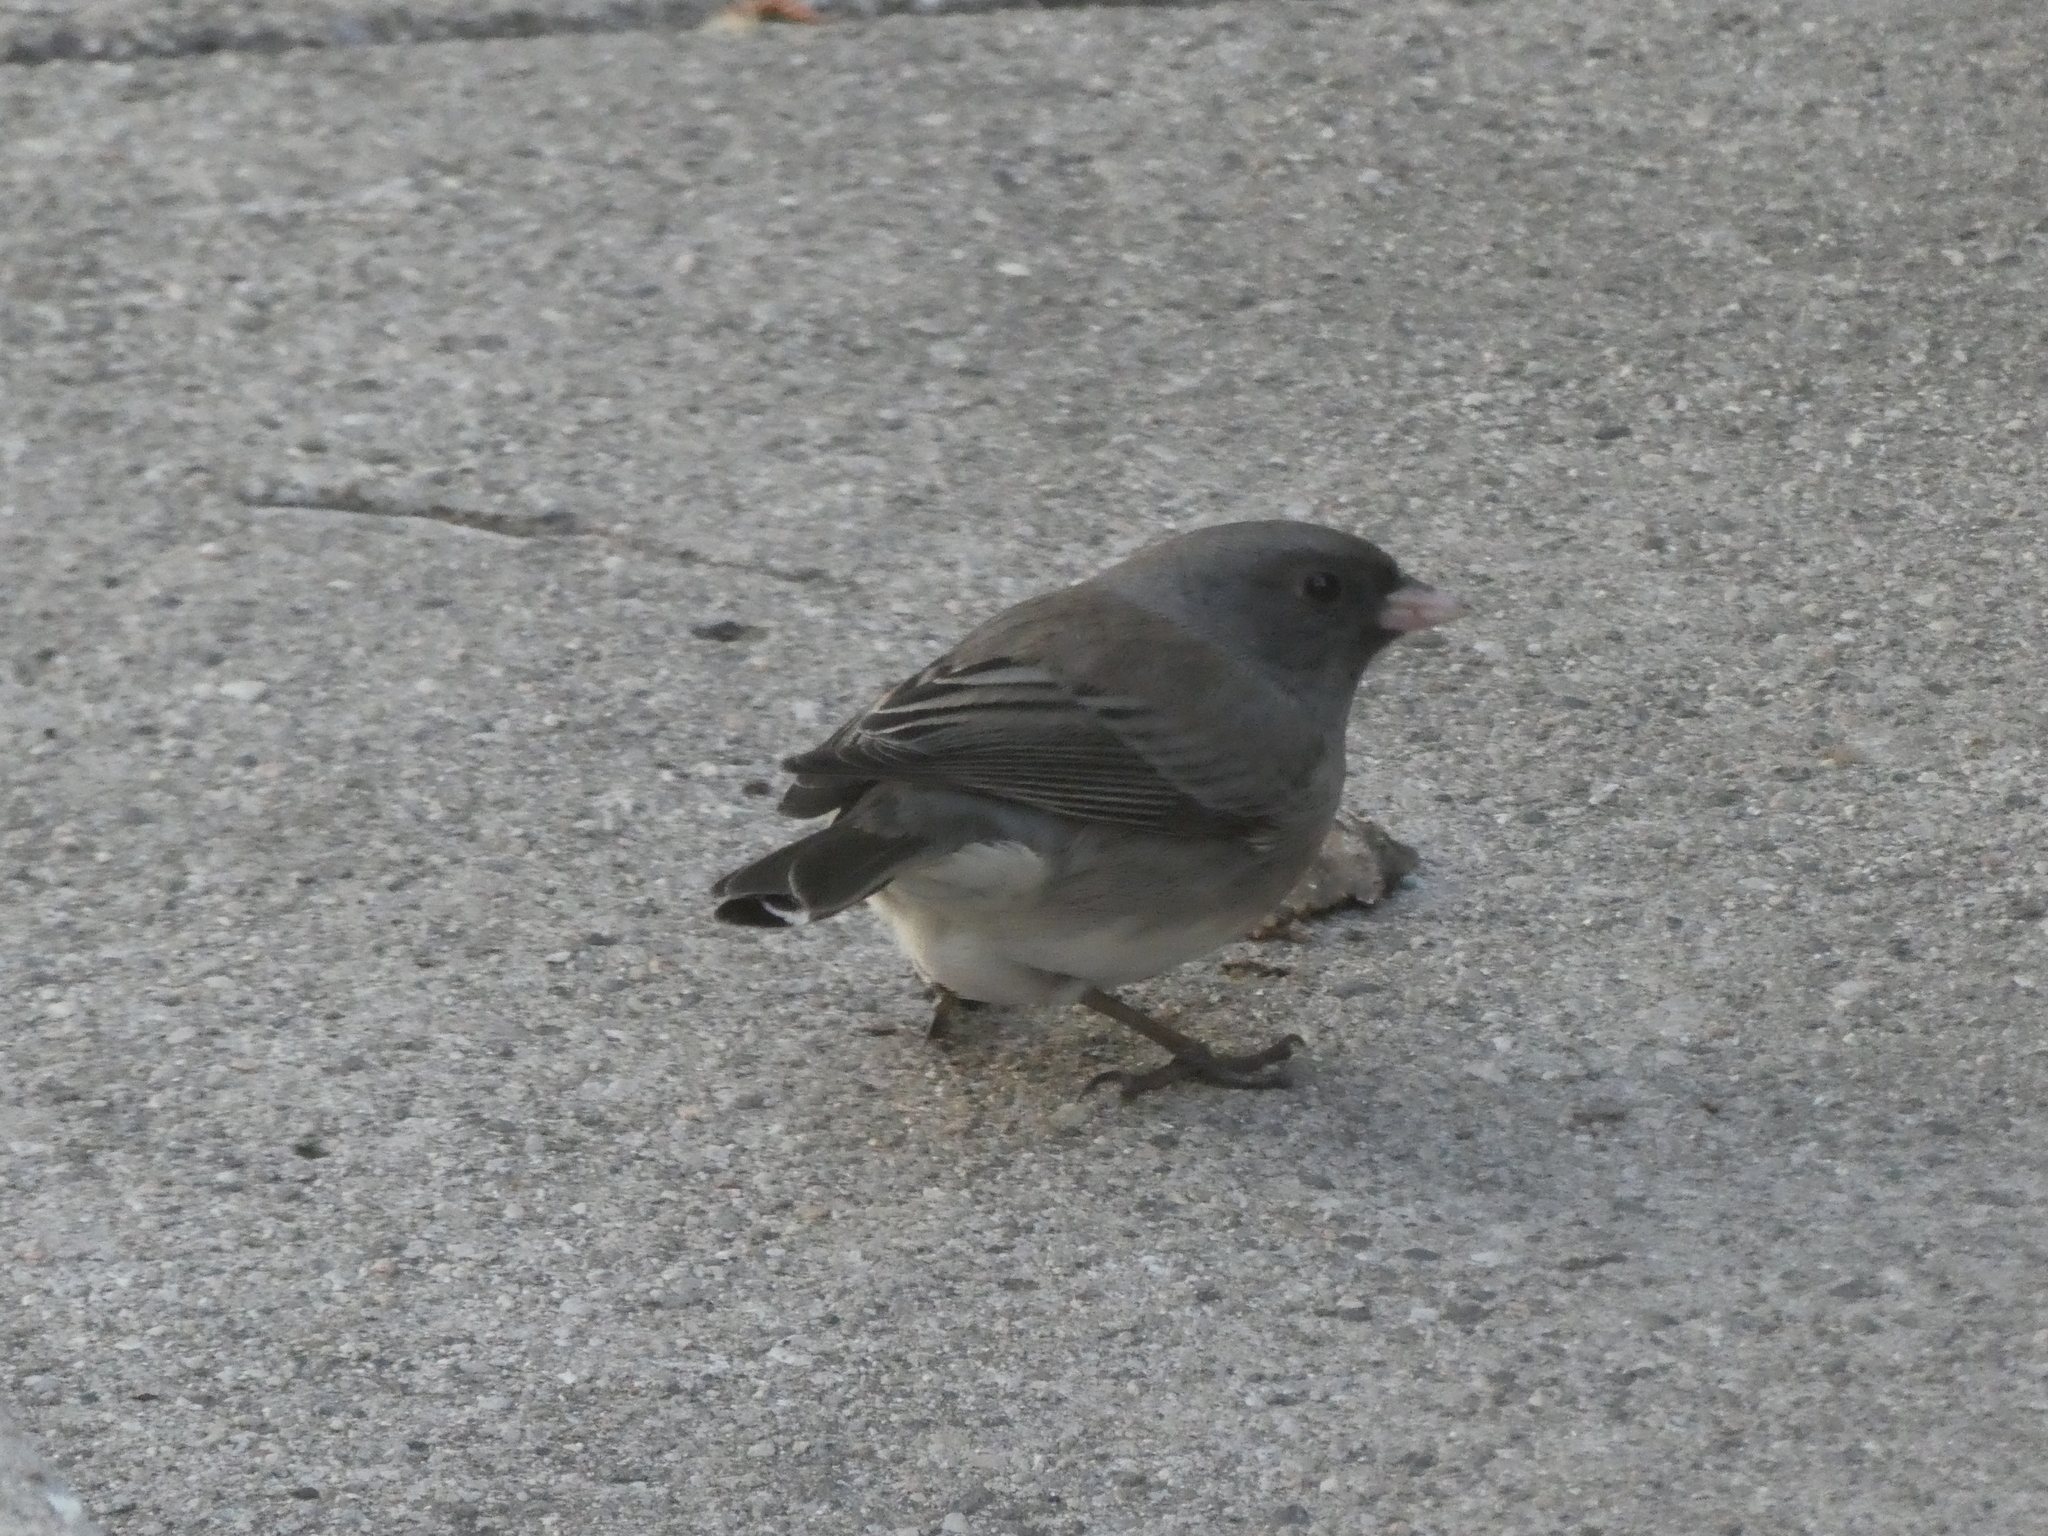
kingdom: Animalia
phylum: Chordata
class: Aves
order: Passeriformes
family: Passerellidae
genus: Junco
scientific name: Junco hyemalis
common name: Dark-eyed junco
